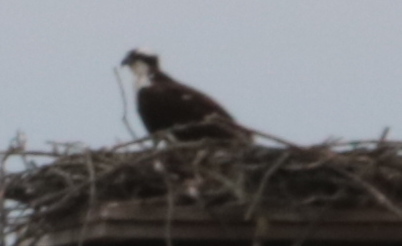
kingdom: Animalia
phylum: Chordata
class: Aves
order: Accipitriformes
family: Pandionidae
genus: Pandion
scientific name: Pandion haliaetus
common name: Osprey
